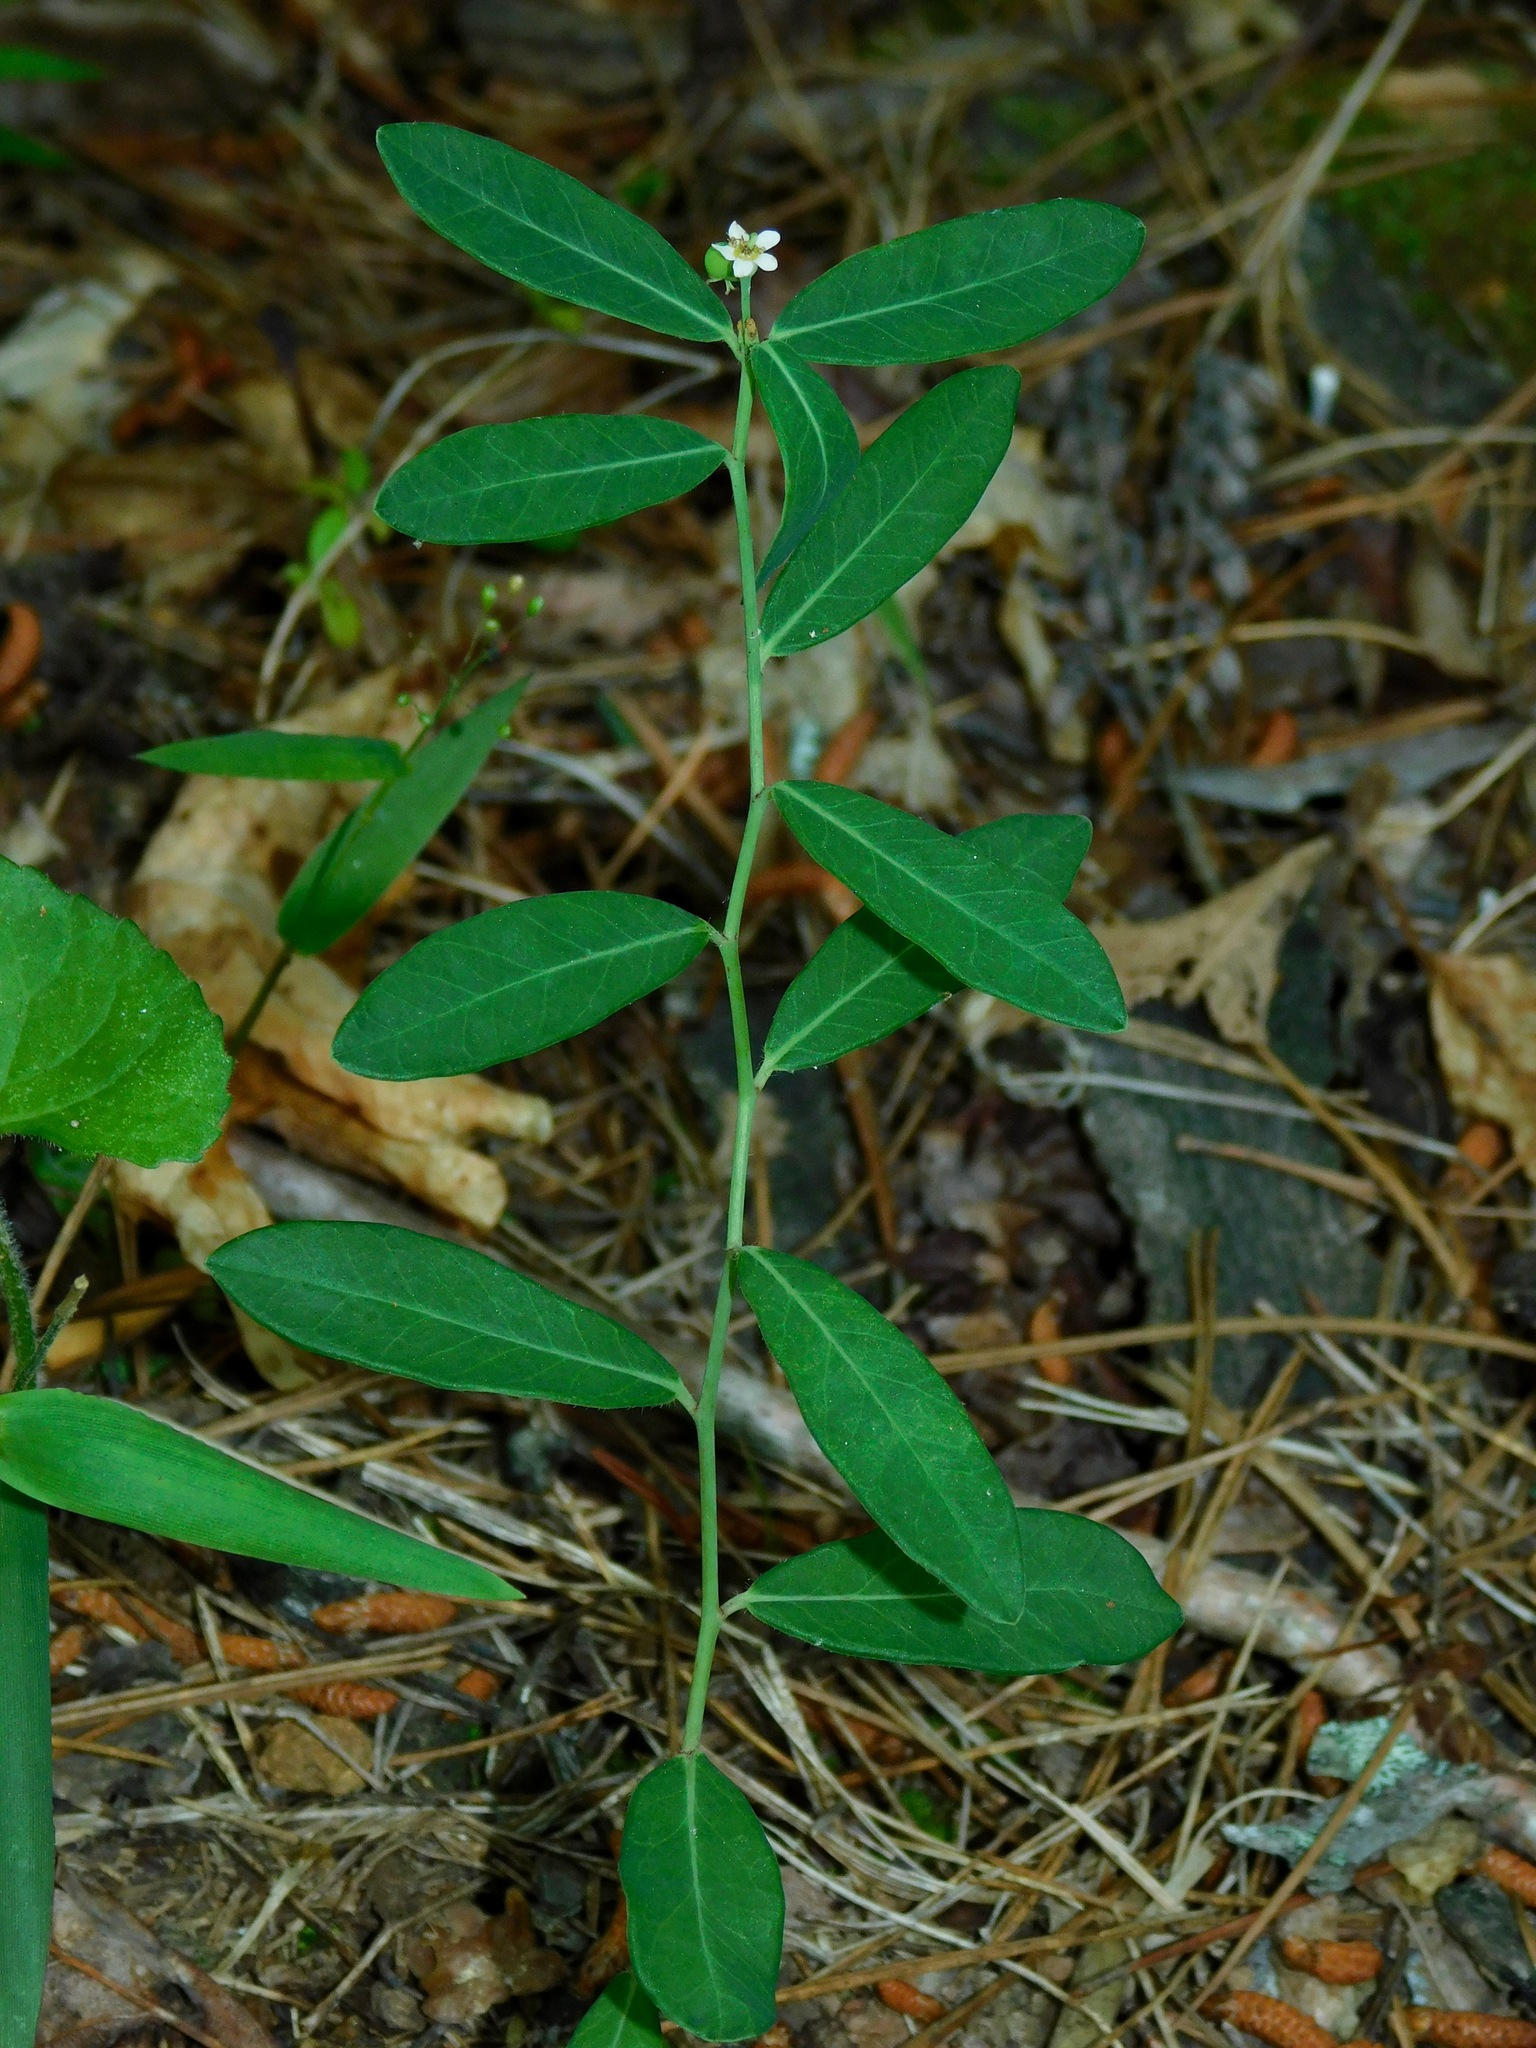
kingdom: Plantae
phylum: Tracheophyta
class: Magnoliopsida
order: Malpighiales
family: Euphorbiaceae
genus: Euphorbia
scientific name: Euphorbia corollata
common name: Flowering spurge
